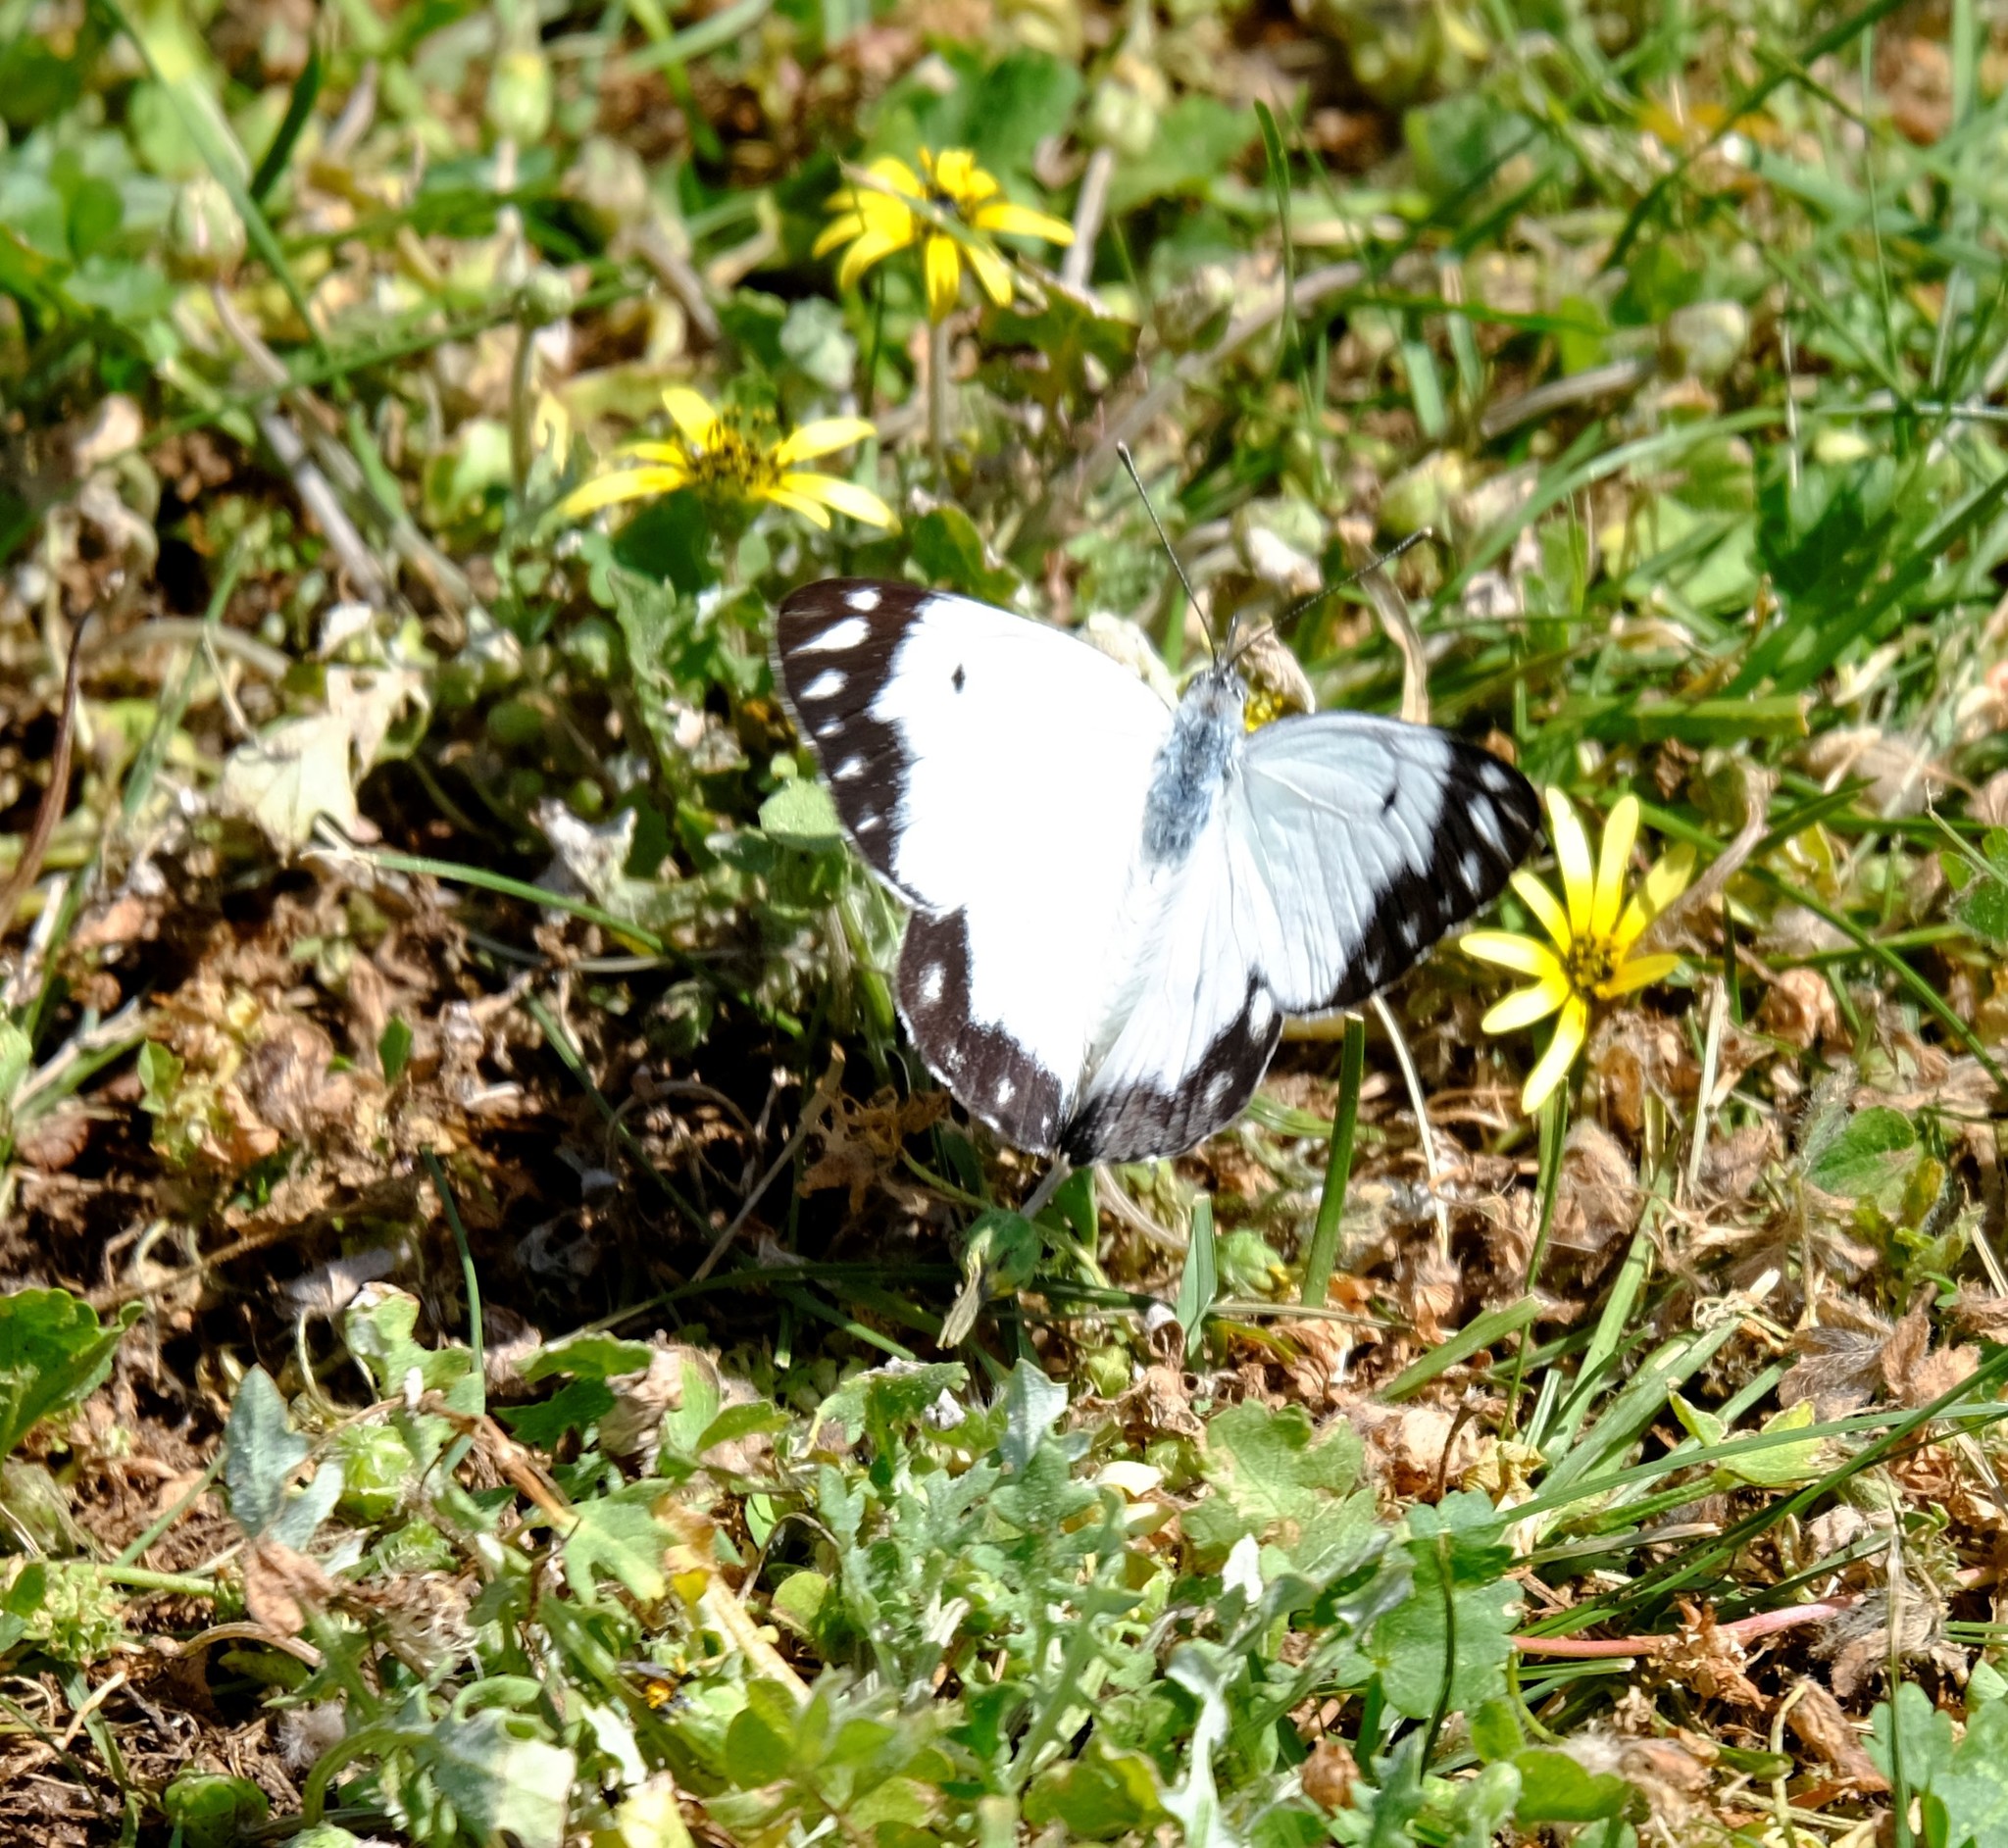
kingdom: Animalia
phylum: Arthropoda
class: Insecta
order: Lepidoptera
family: Pieridae
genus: Belenois
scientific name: Belenois java
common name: Caper white
